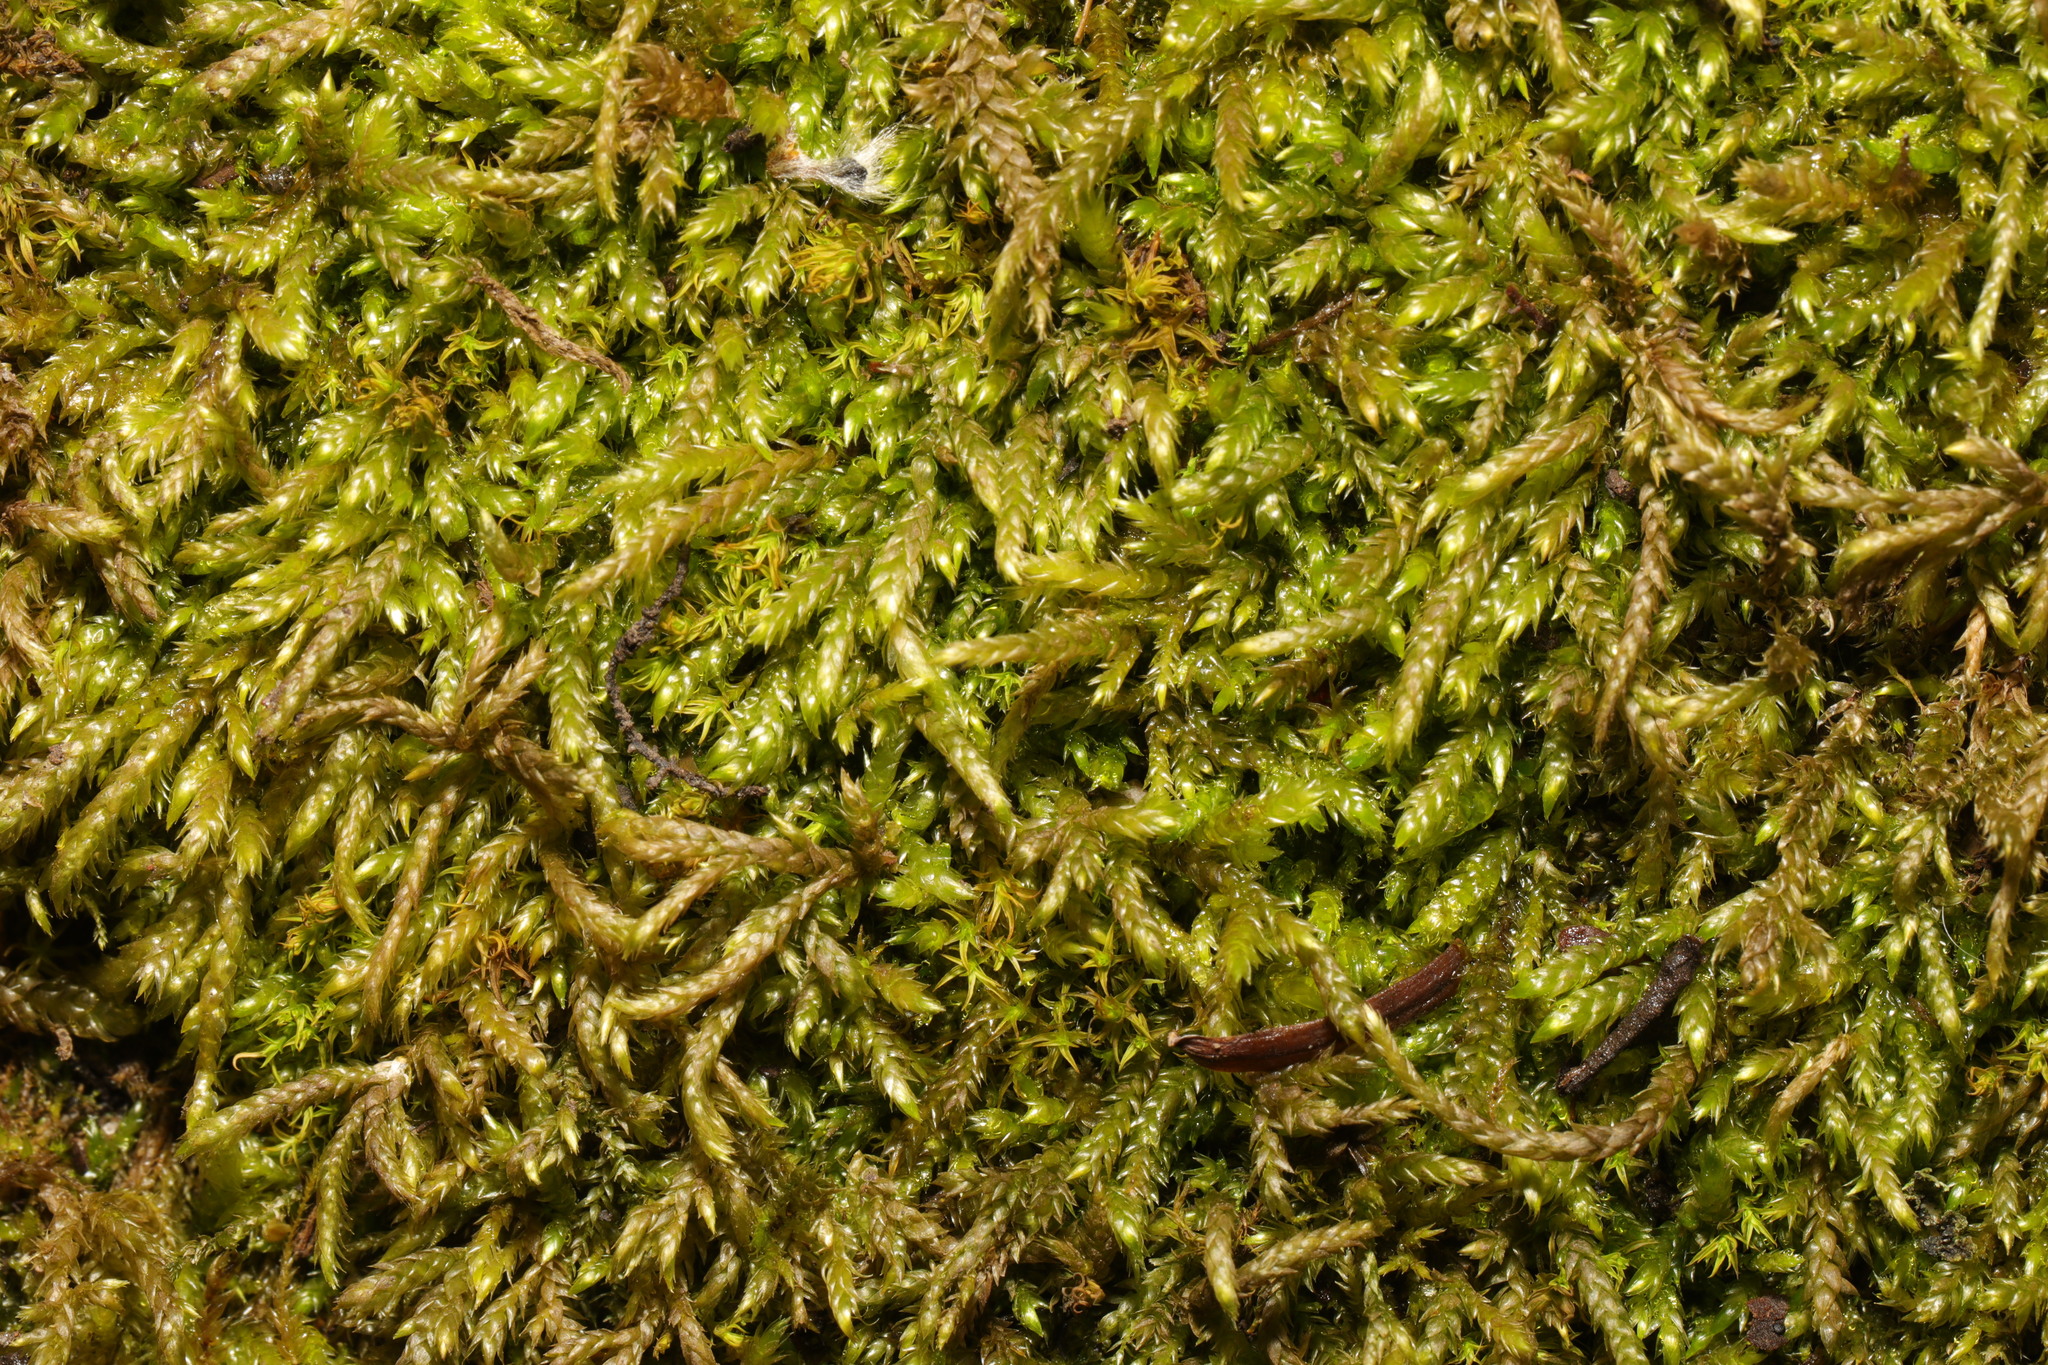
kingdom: Plantae
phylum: Bryophyta
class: Bryopsida
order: Hypnales
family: Hypnaceae
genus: Hypnum
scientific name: Hypnum cupressiforme
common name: Cypress-leaved plait-moss
